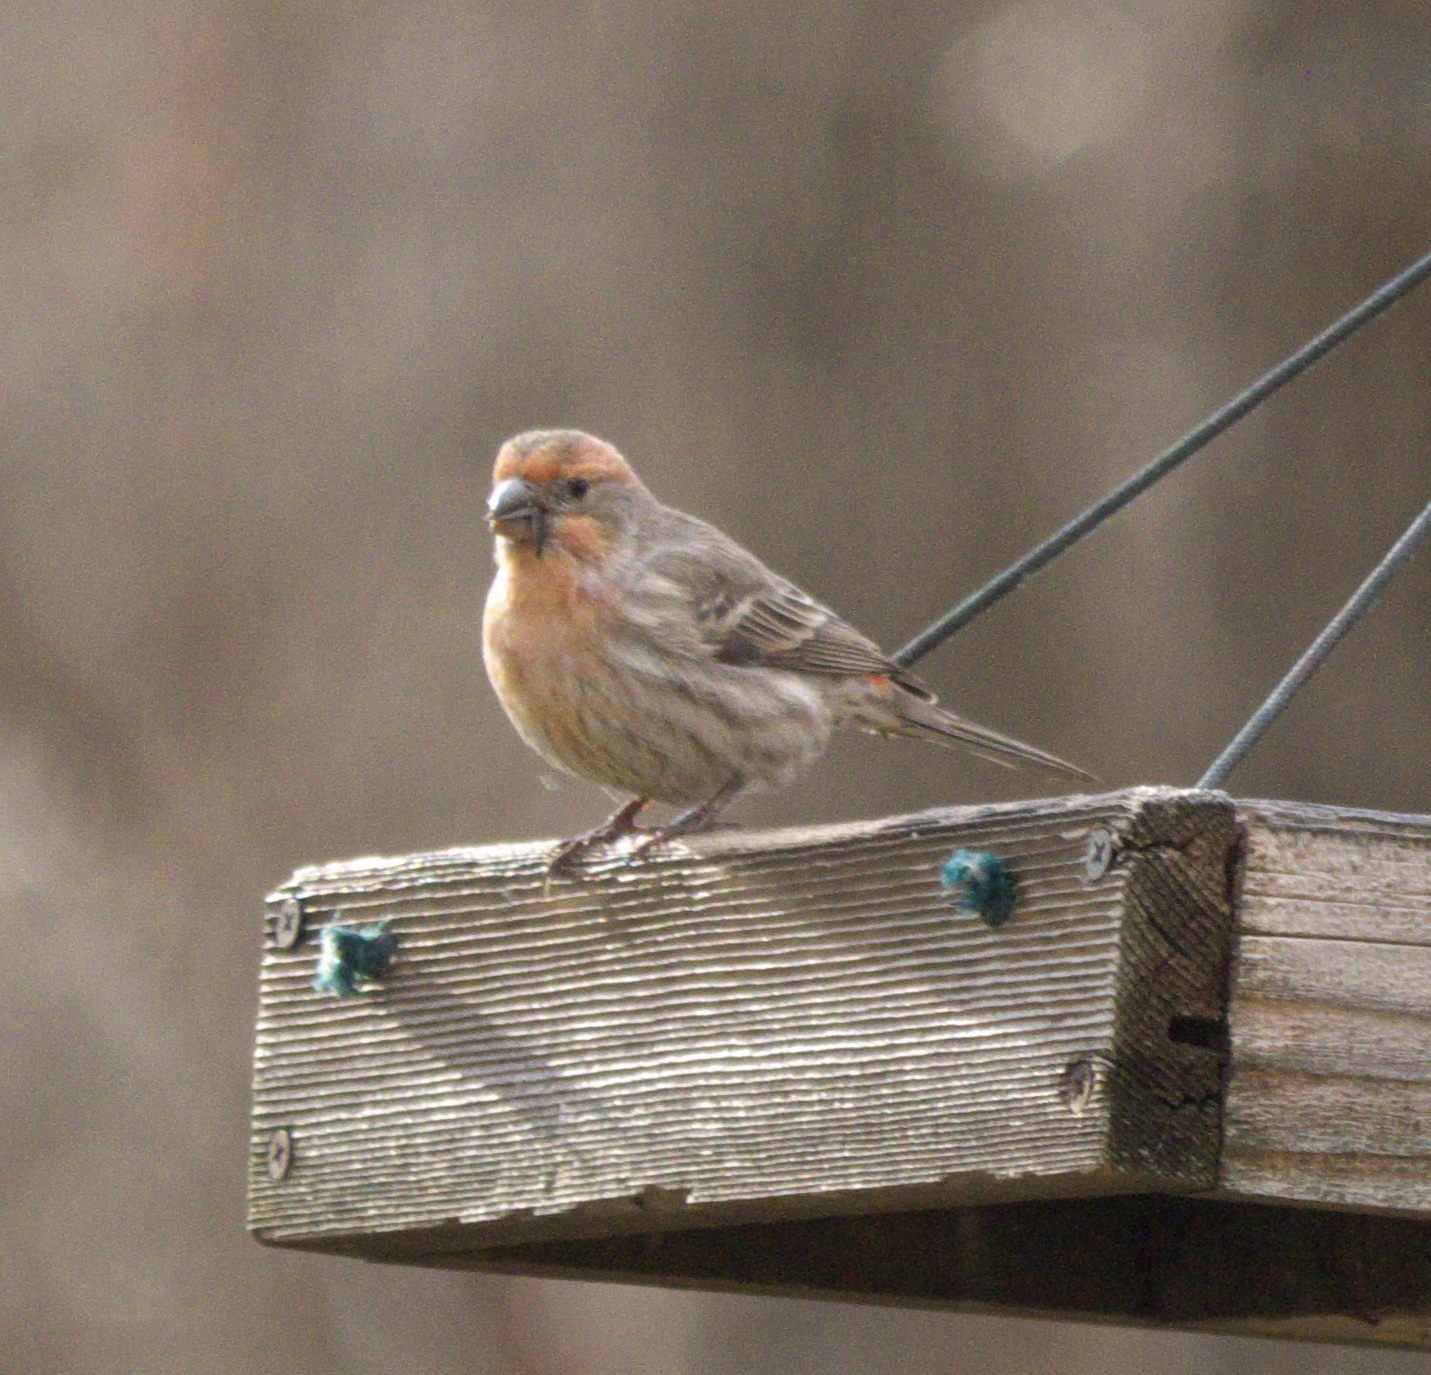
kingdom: Animalia
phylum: Chordata
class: Aves
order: Passeriformes
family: Fringillidae
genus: Haemorhous
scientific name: Haemorhous mexicanus
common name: House finch
